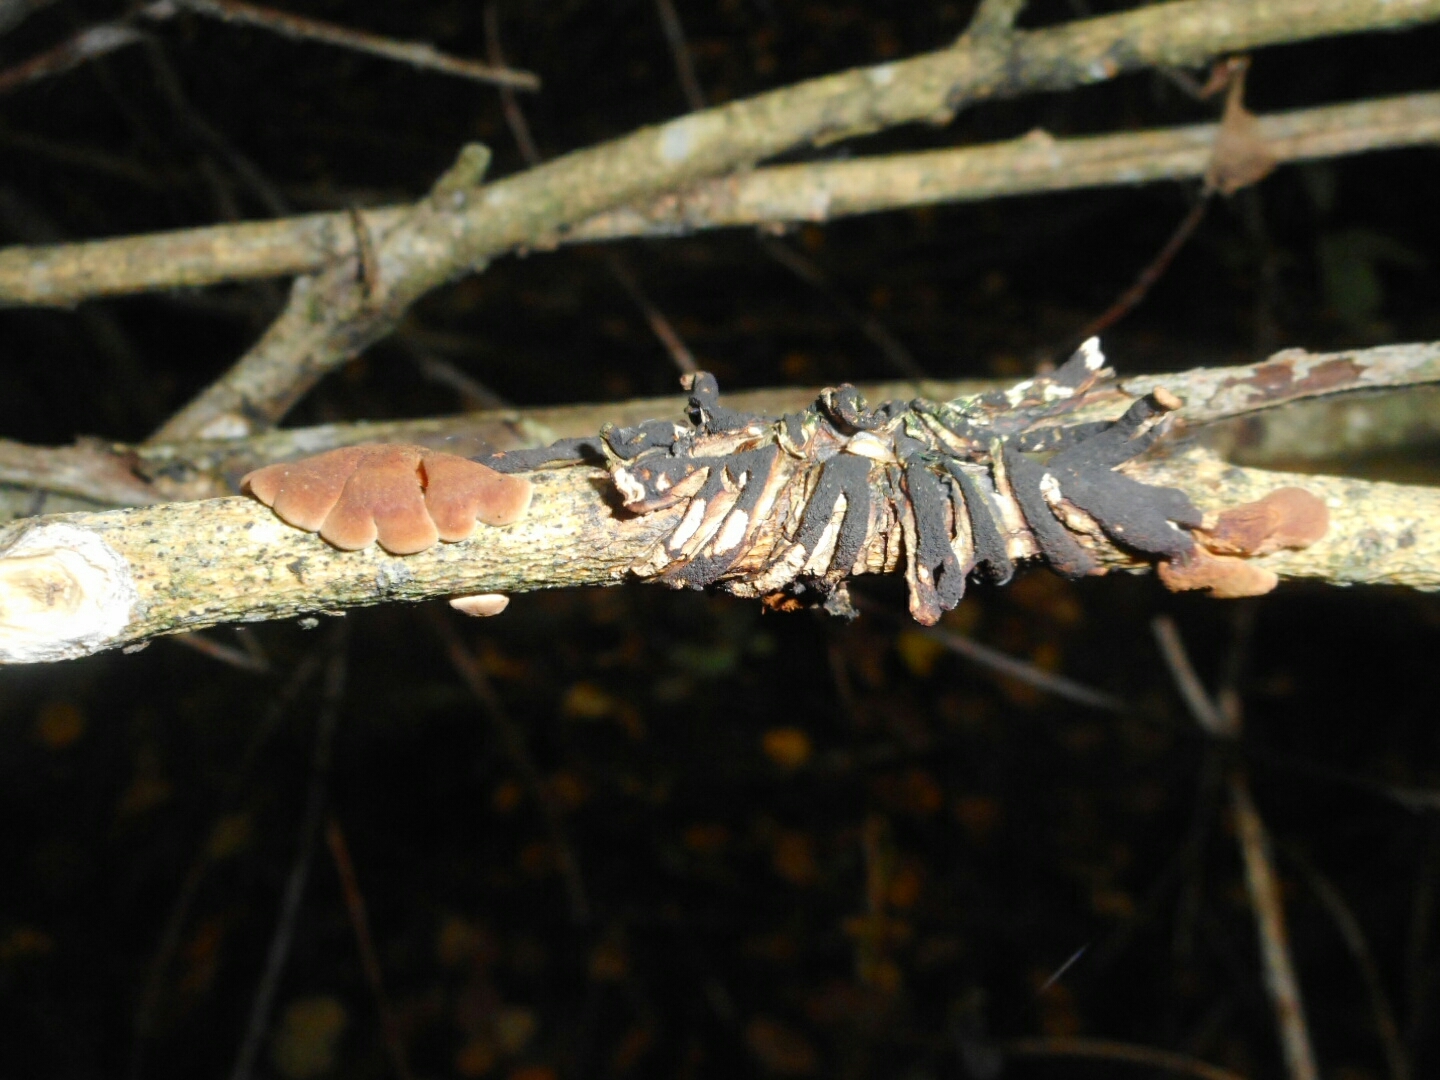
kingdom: Fungi
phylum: Ascomycota
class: Sordariomycetes
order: Hypocreales
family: Hypocreaceae
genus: Hypocreopsis
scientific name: Hypocreopsis lichenoides
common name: Willow gloves
